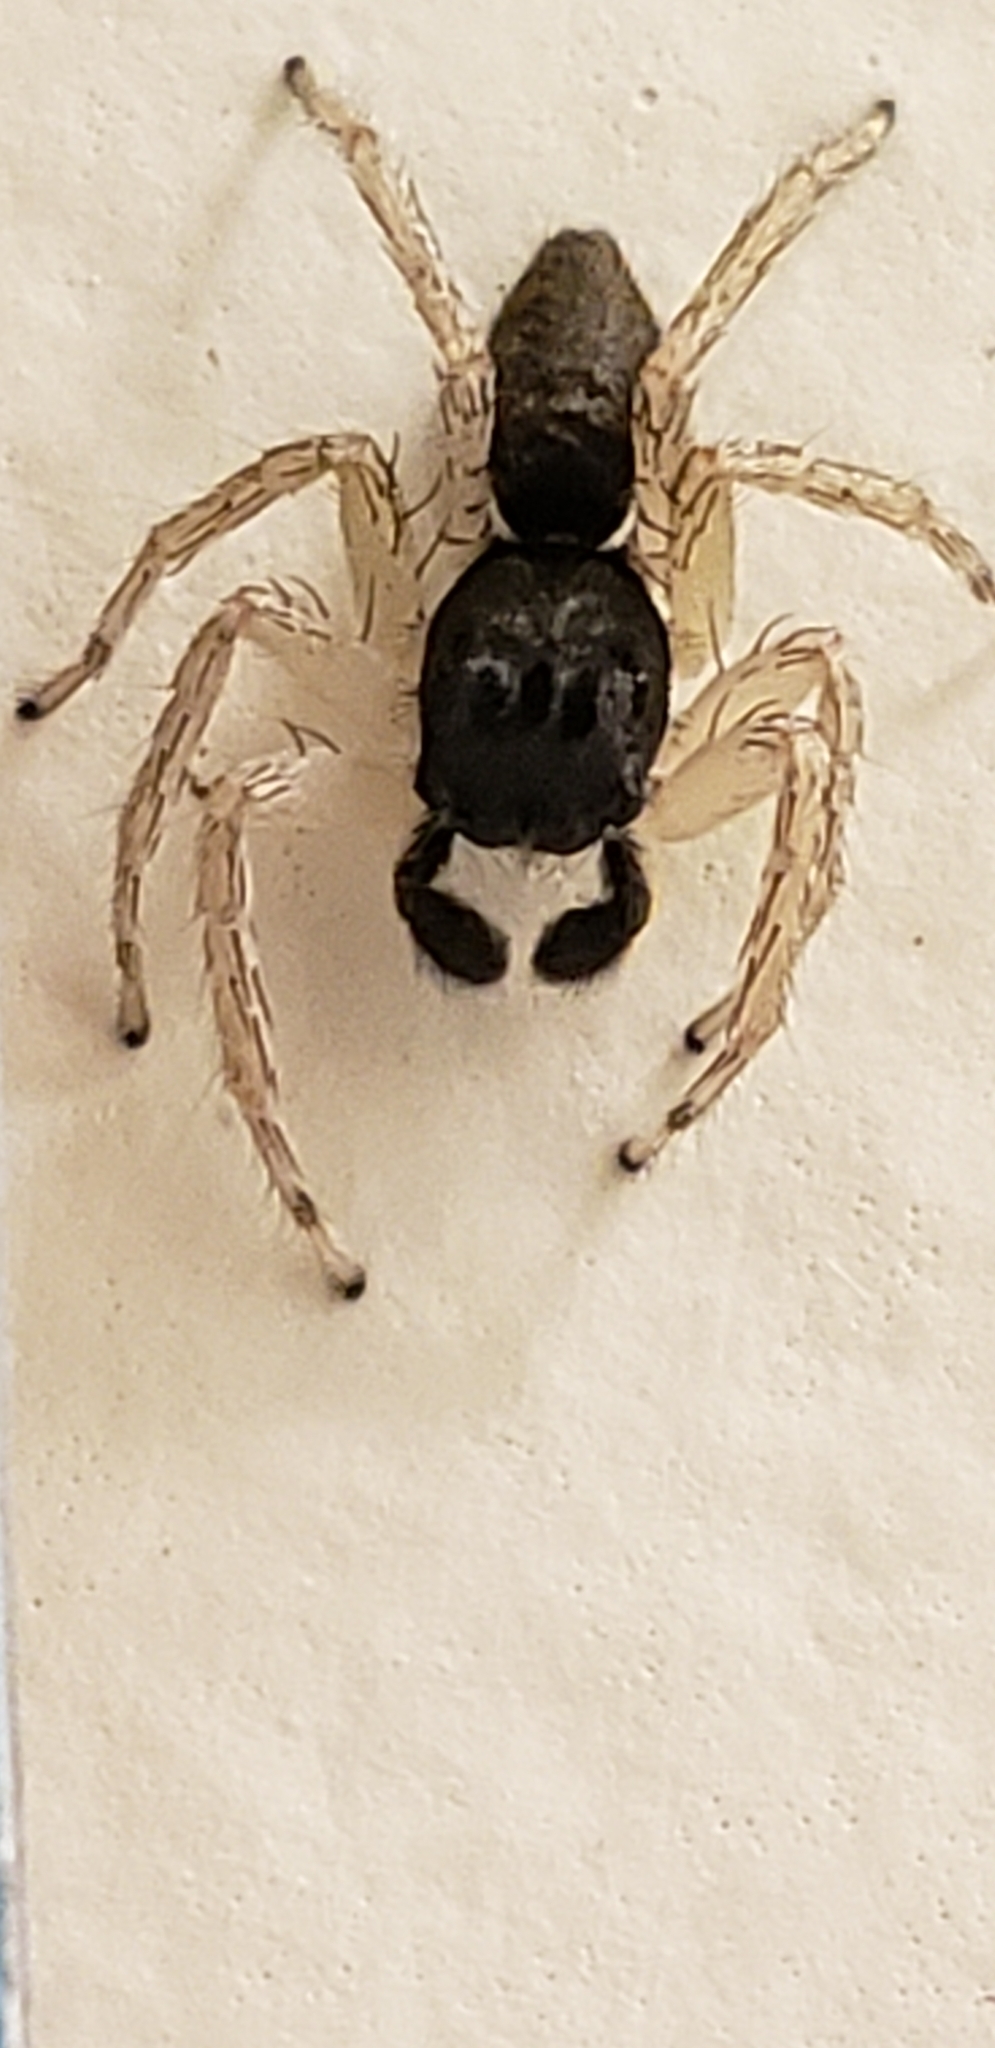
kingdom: Animalia
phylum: Arthropoda
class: Arachnida
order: Araneae
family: Salticidae
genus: Maevia
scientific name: Maevia inclemens
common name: Dimorphic jumper
